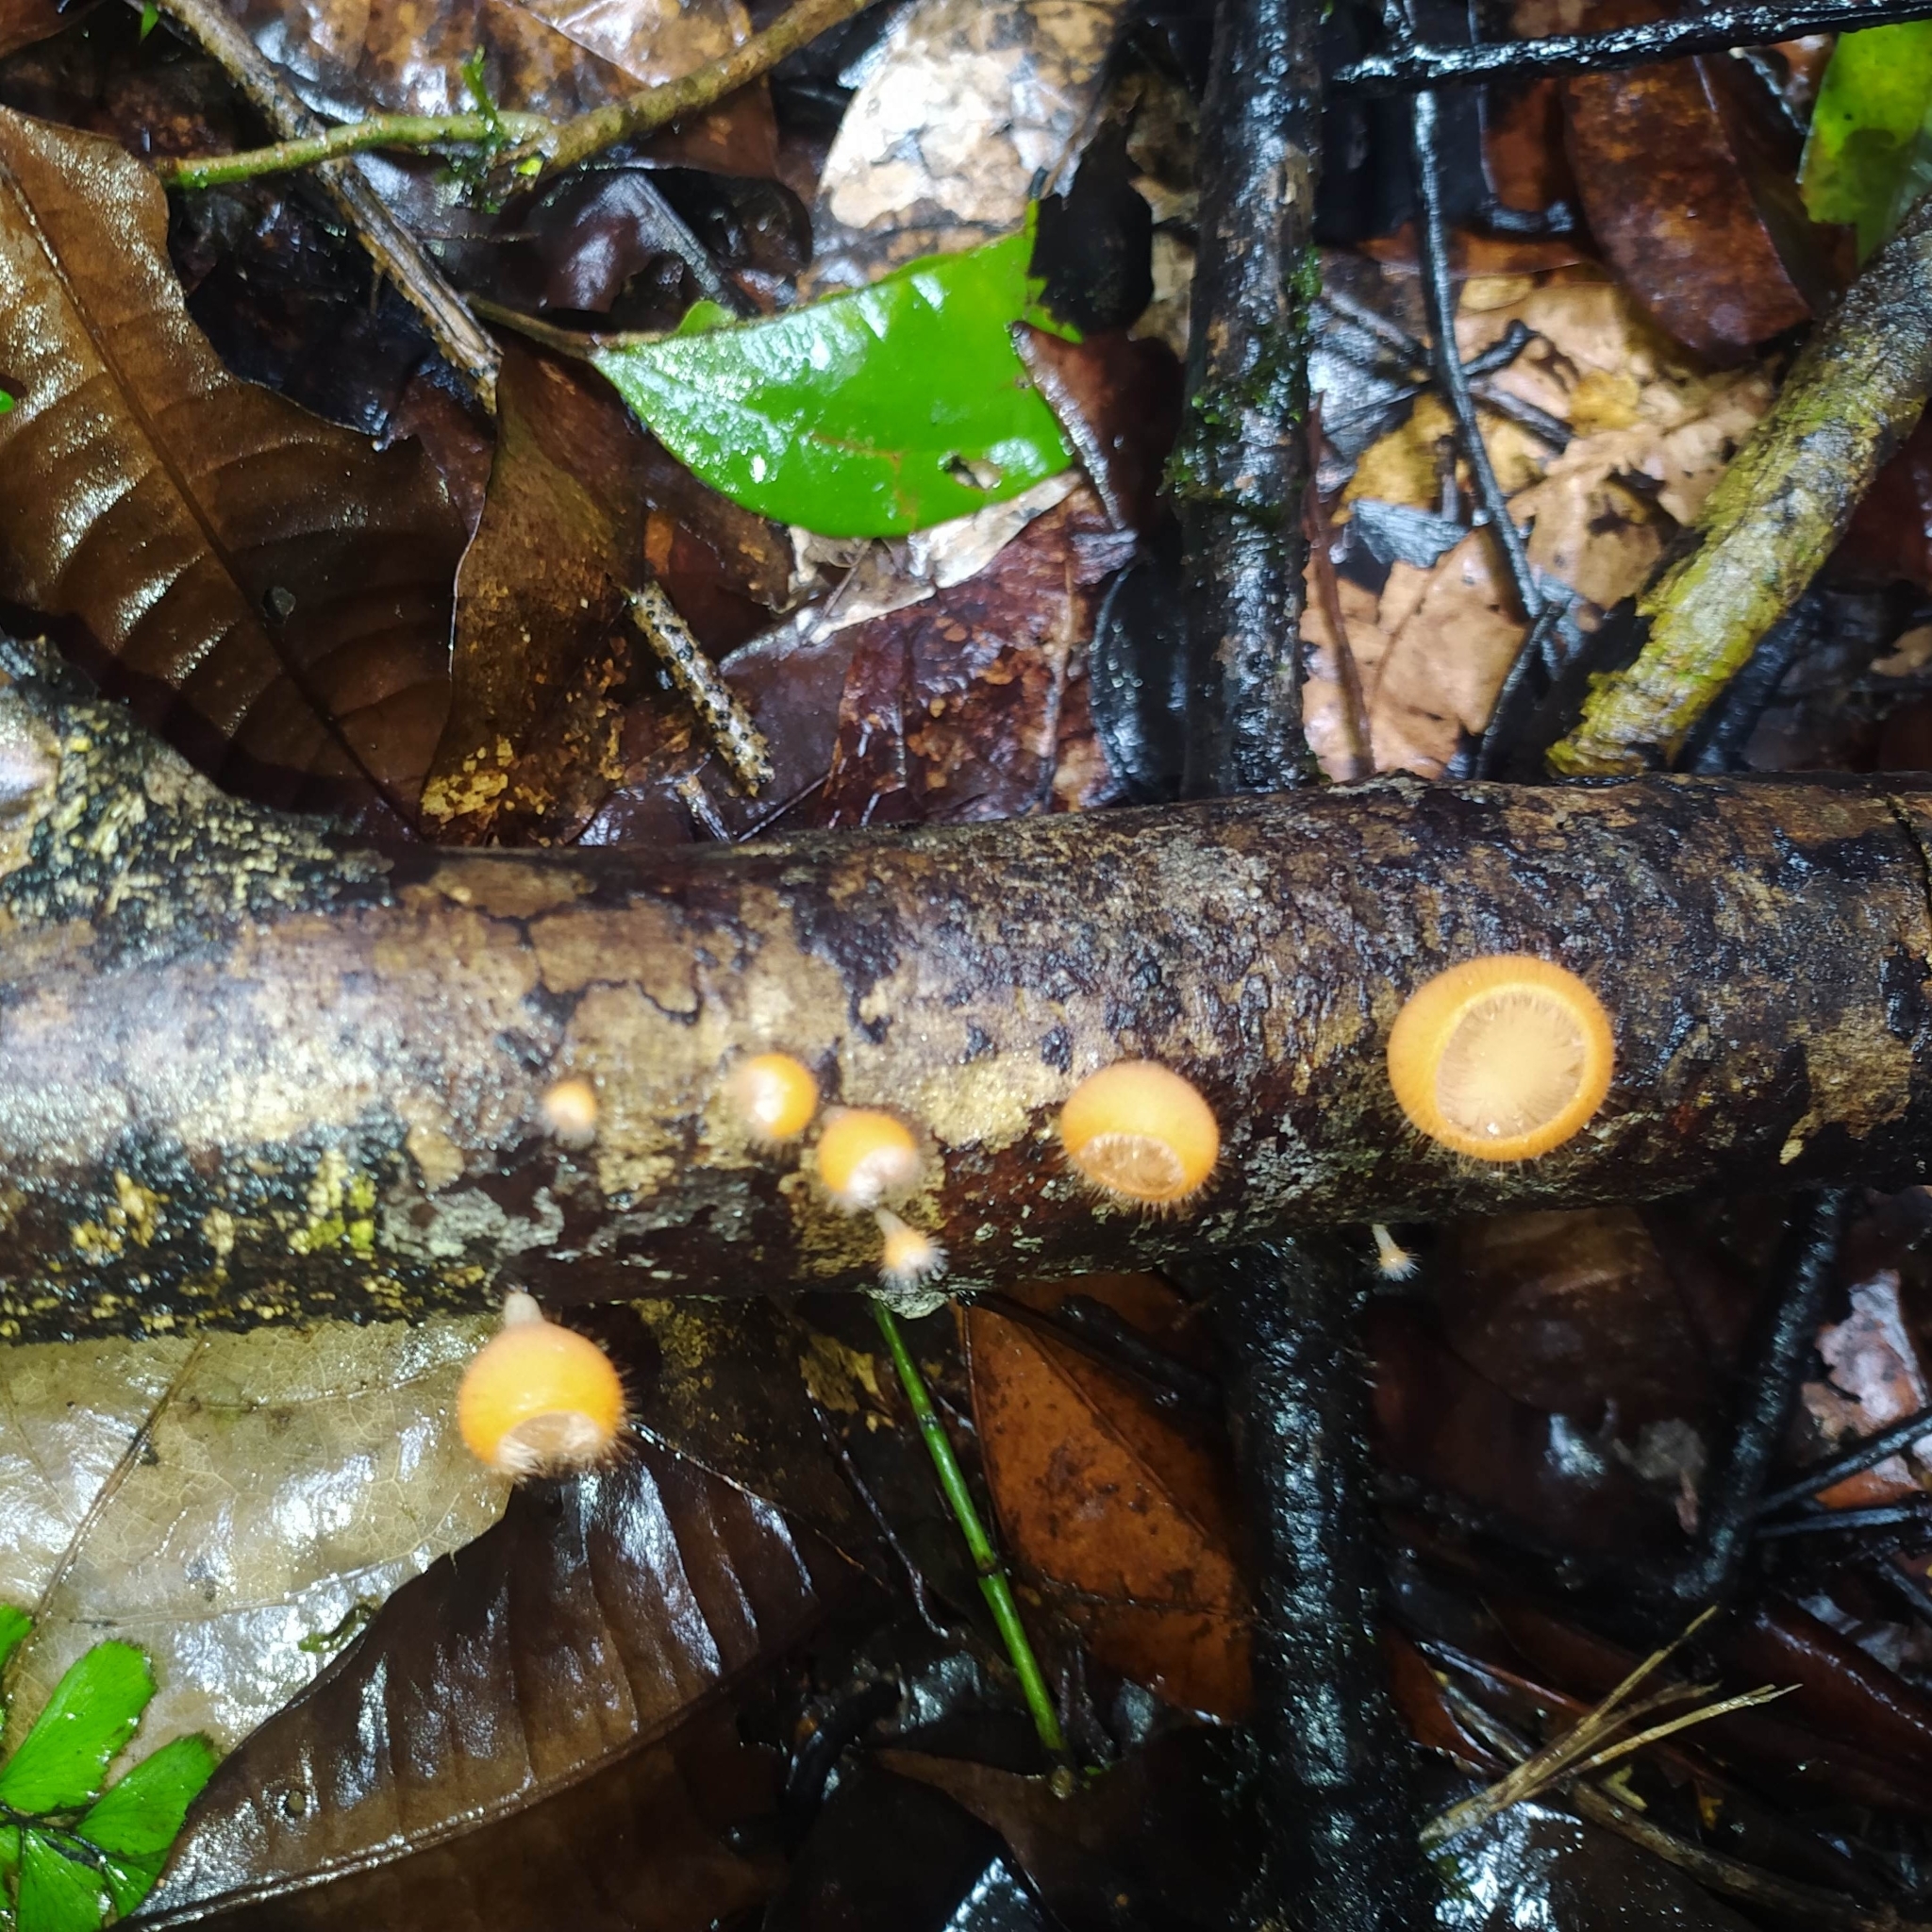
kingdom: Fungi
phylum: Ascomycota
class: Pezizomycetes
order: Pezizales
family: Sarcoscyphaceae
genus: Cookeina
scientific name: Cookeina tricholoma
